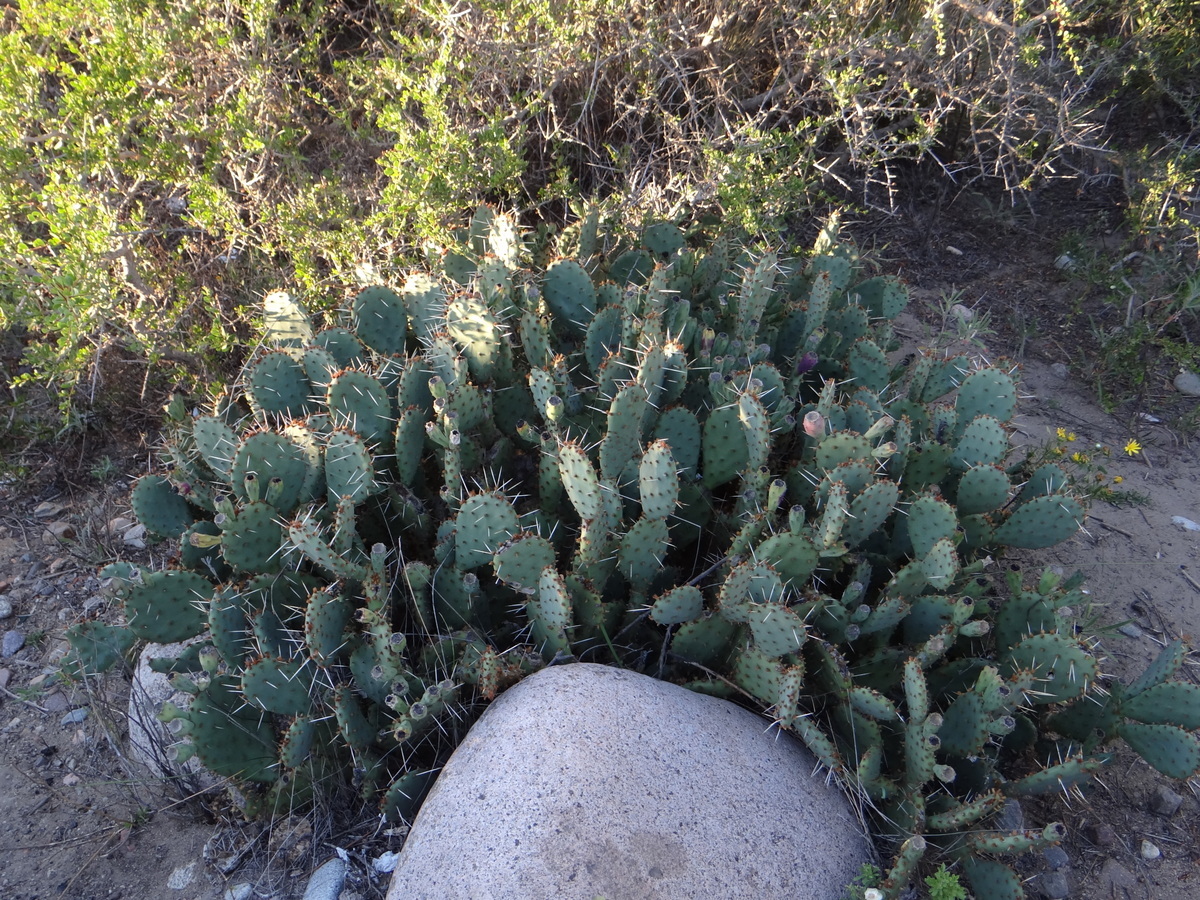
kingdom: Plantae
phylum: Tracheophyta
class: Magnoliopsida
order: Caryophyllales
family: Cactaceae
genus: Opuntia
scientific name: Opuntia penicilligera
